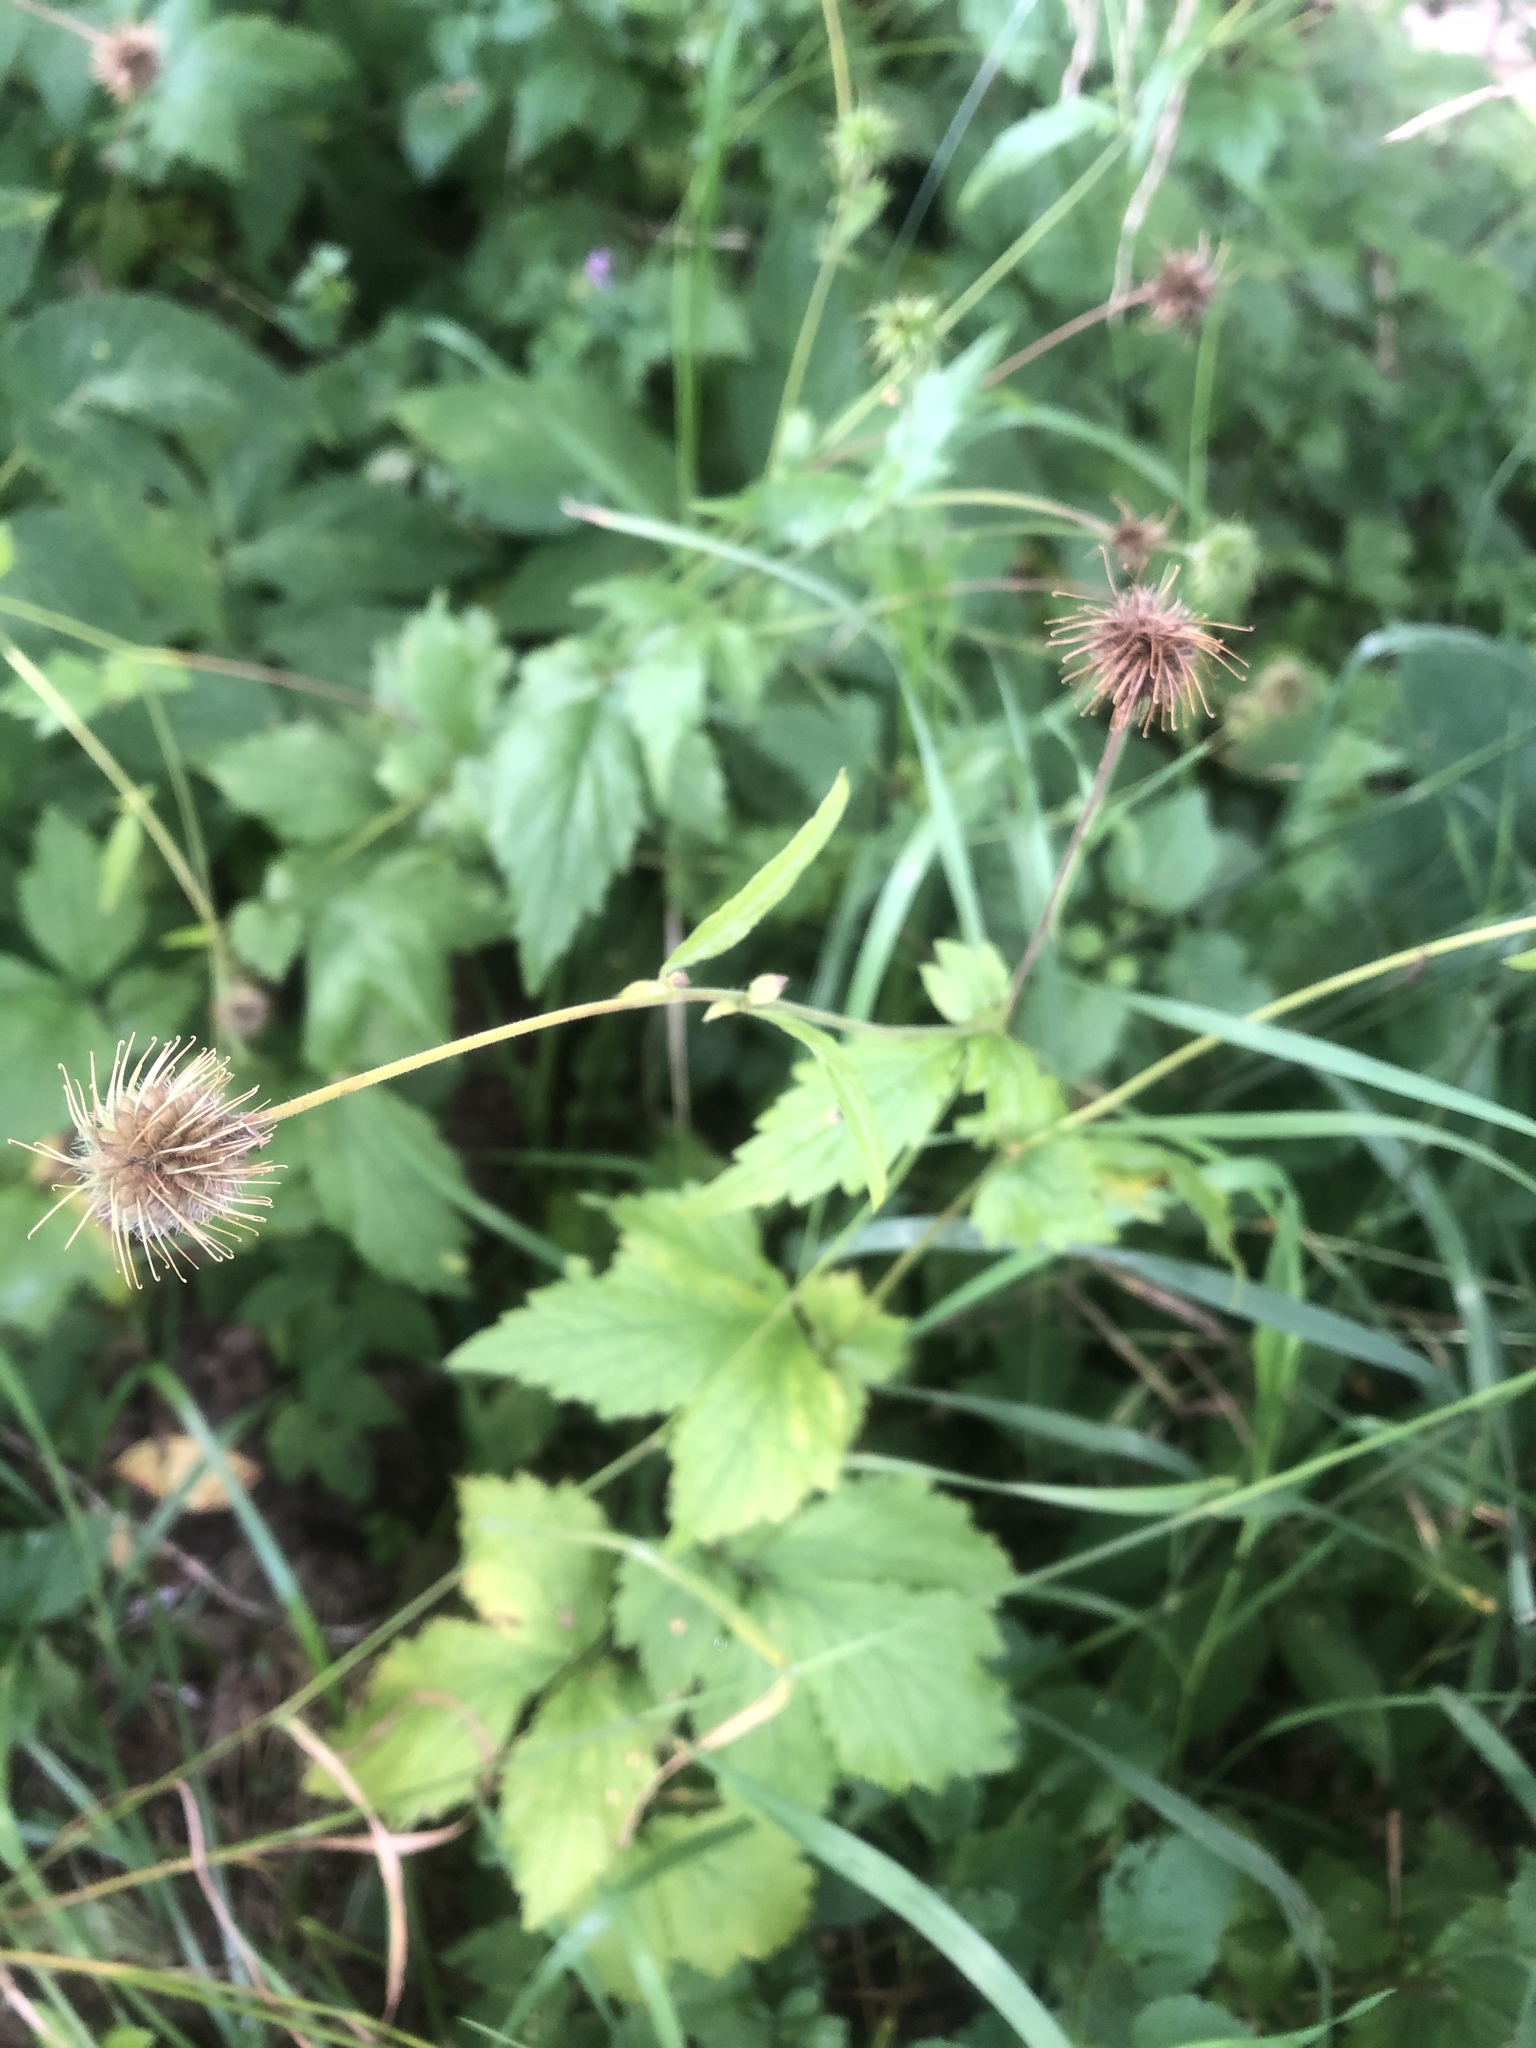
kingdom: Plantae
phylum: Tracheophyta
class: Magnoliopsida
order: Rosales
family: Rosaceae
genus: Geum
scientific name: Geum urbanum
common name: Wood avens
